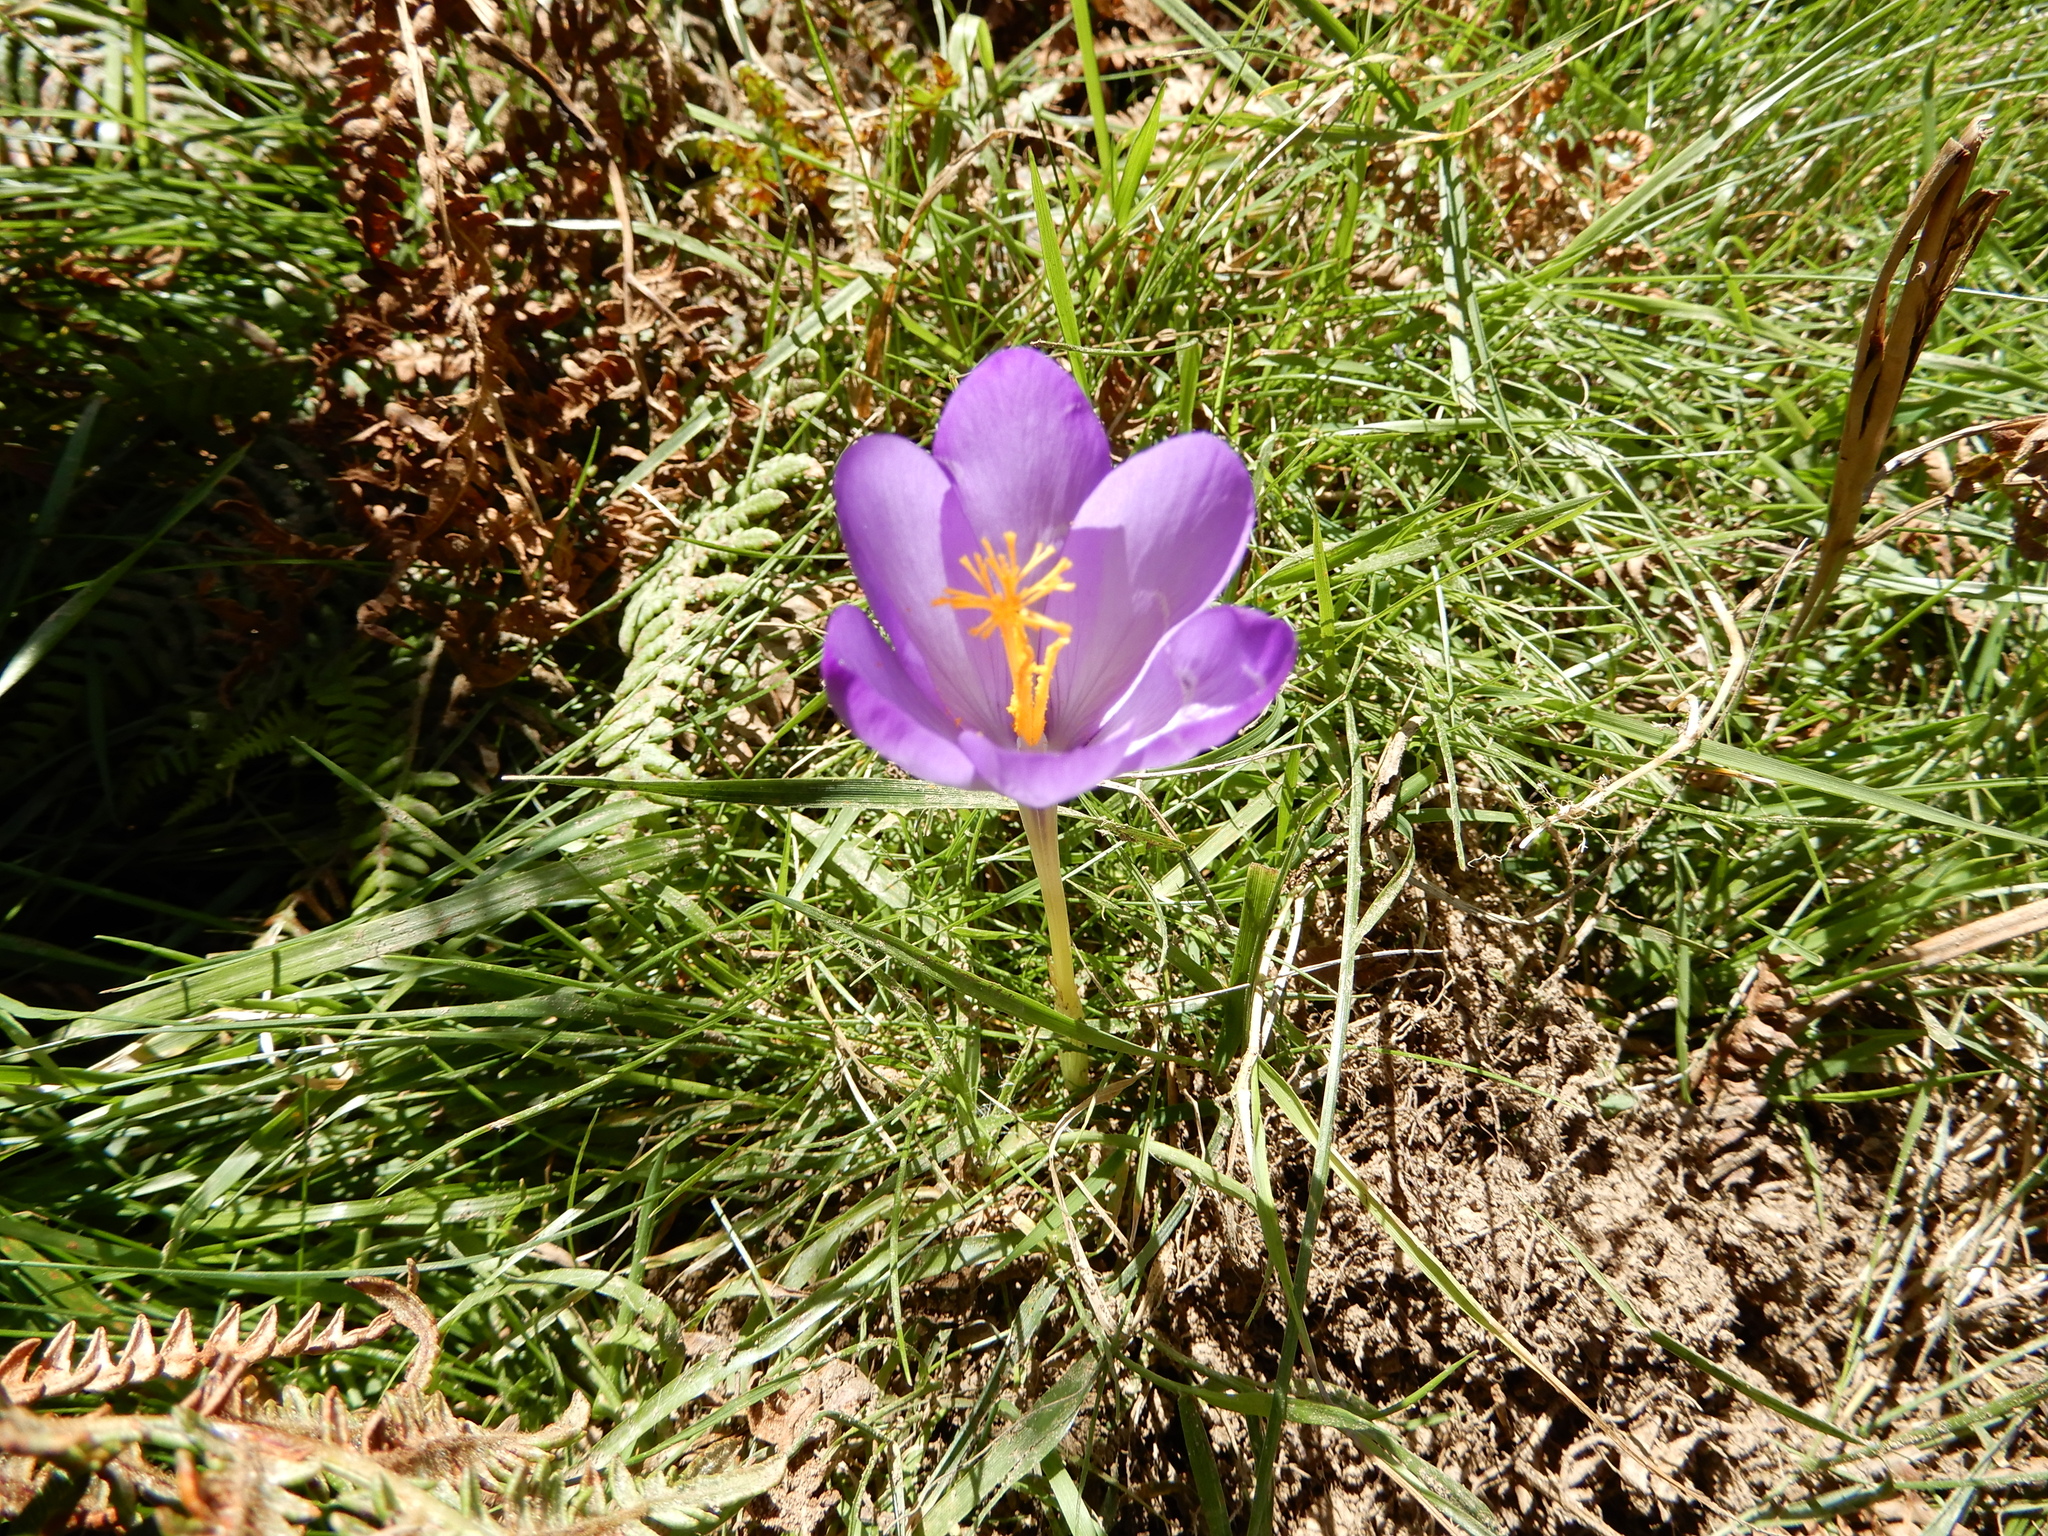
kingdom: Plantae
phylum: Tracheophyta
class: Liliopsida
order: Asparagales
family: Iridaceae
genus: Crocus
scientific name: Crocus nudiflorus
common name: Autumn crocus
